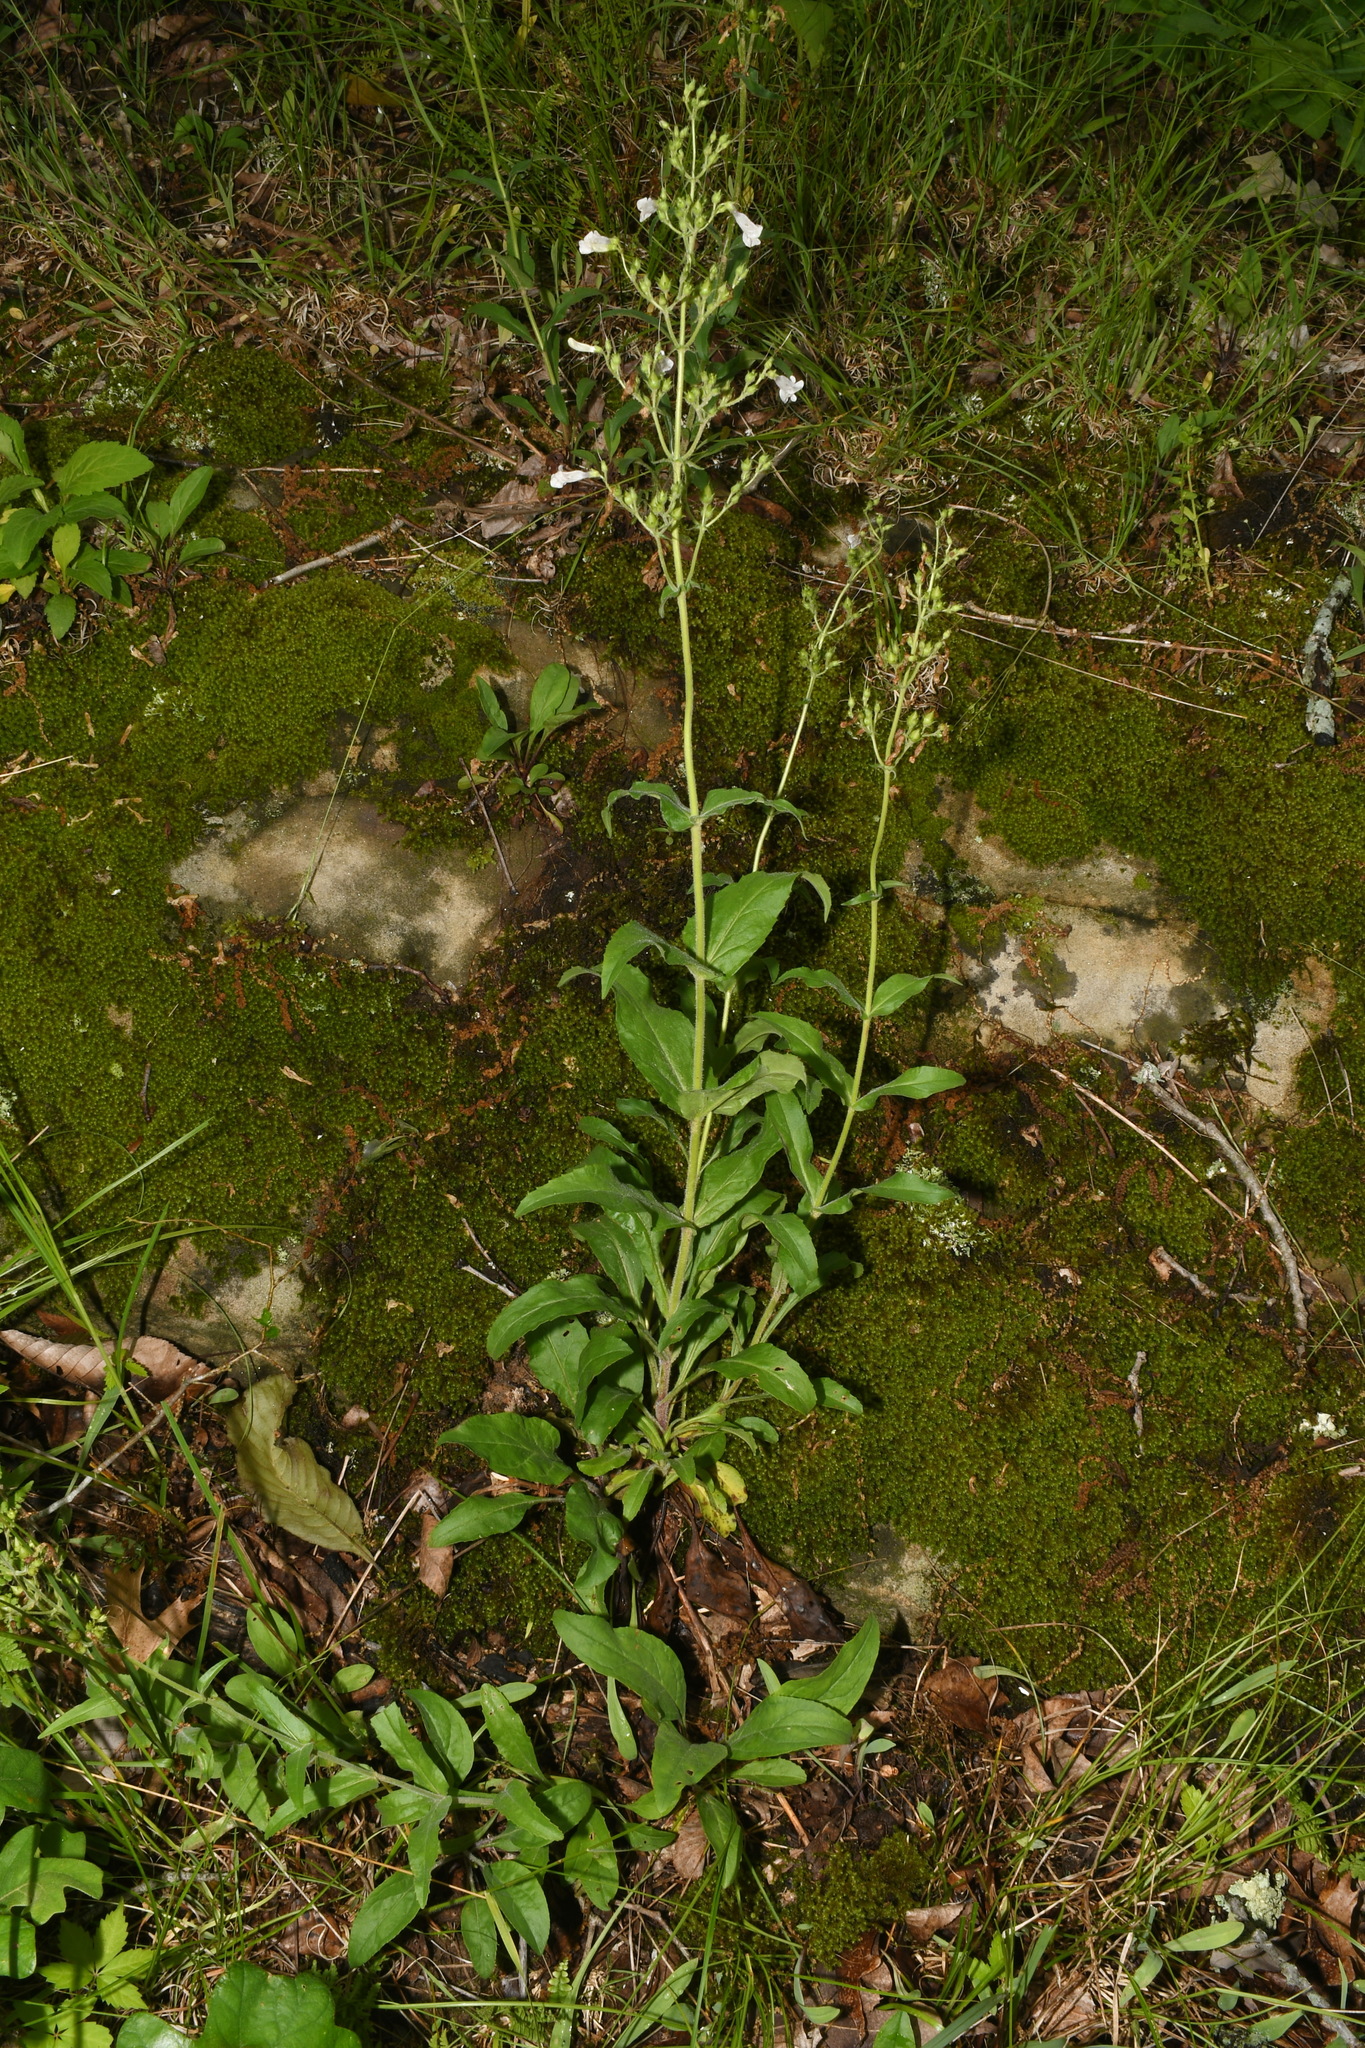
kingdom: Plantae
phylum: Tracheophyta
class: Magnoliopsida
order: Lamiales
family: Plantaginaceae
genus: Penstemon
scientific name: Penstemon pallidus
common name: Pale beardtongue
